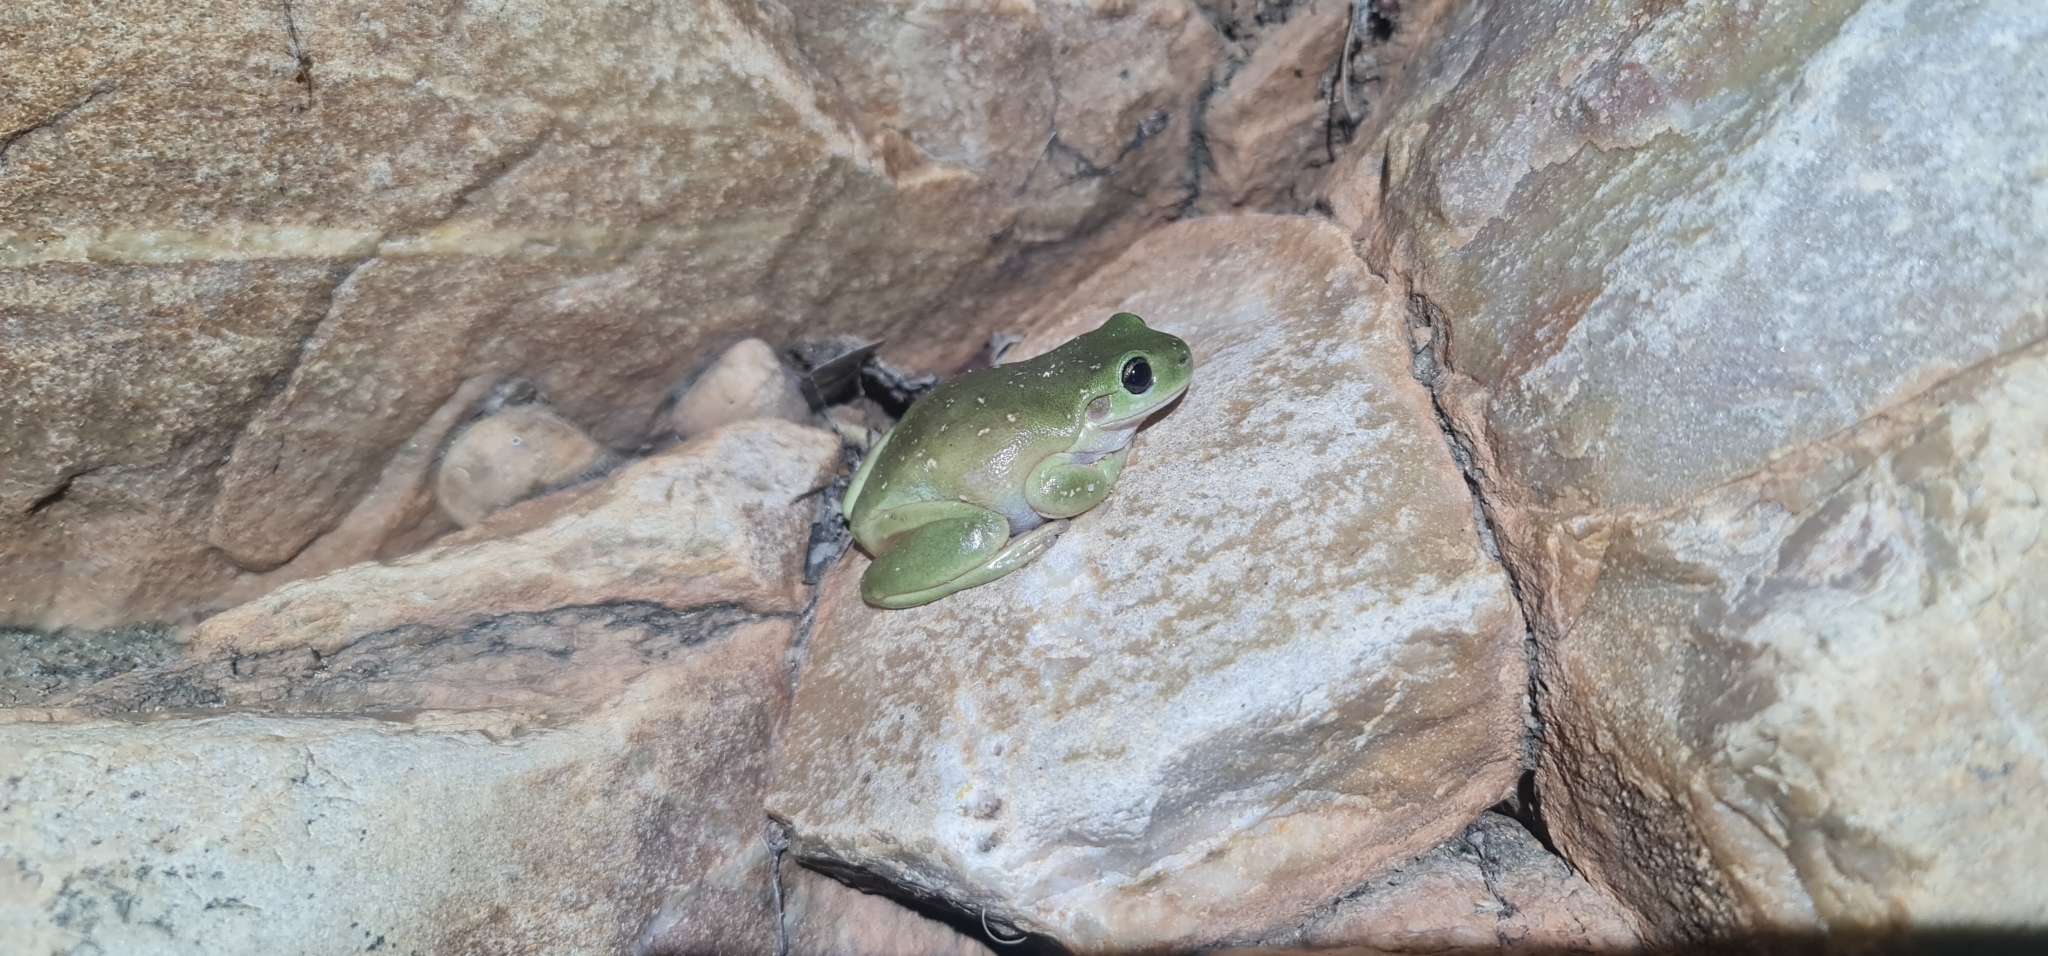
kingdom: Animalia
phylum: Chordata
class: Amphibia
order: Anura
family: Pelodryadidae
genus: Ranoidea
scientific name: Ranoidea gilleni
